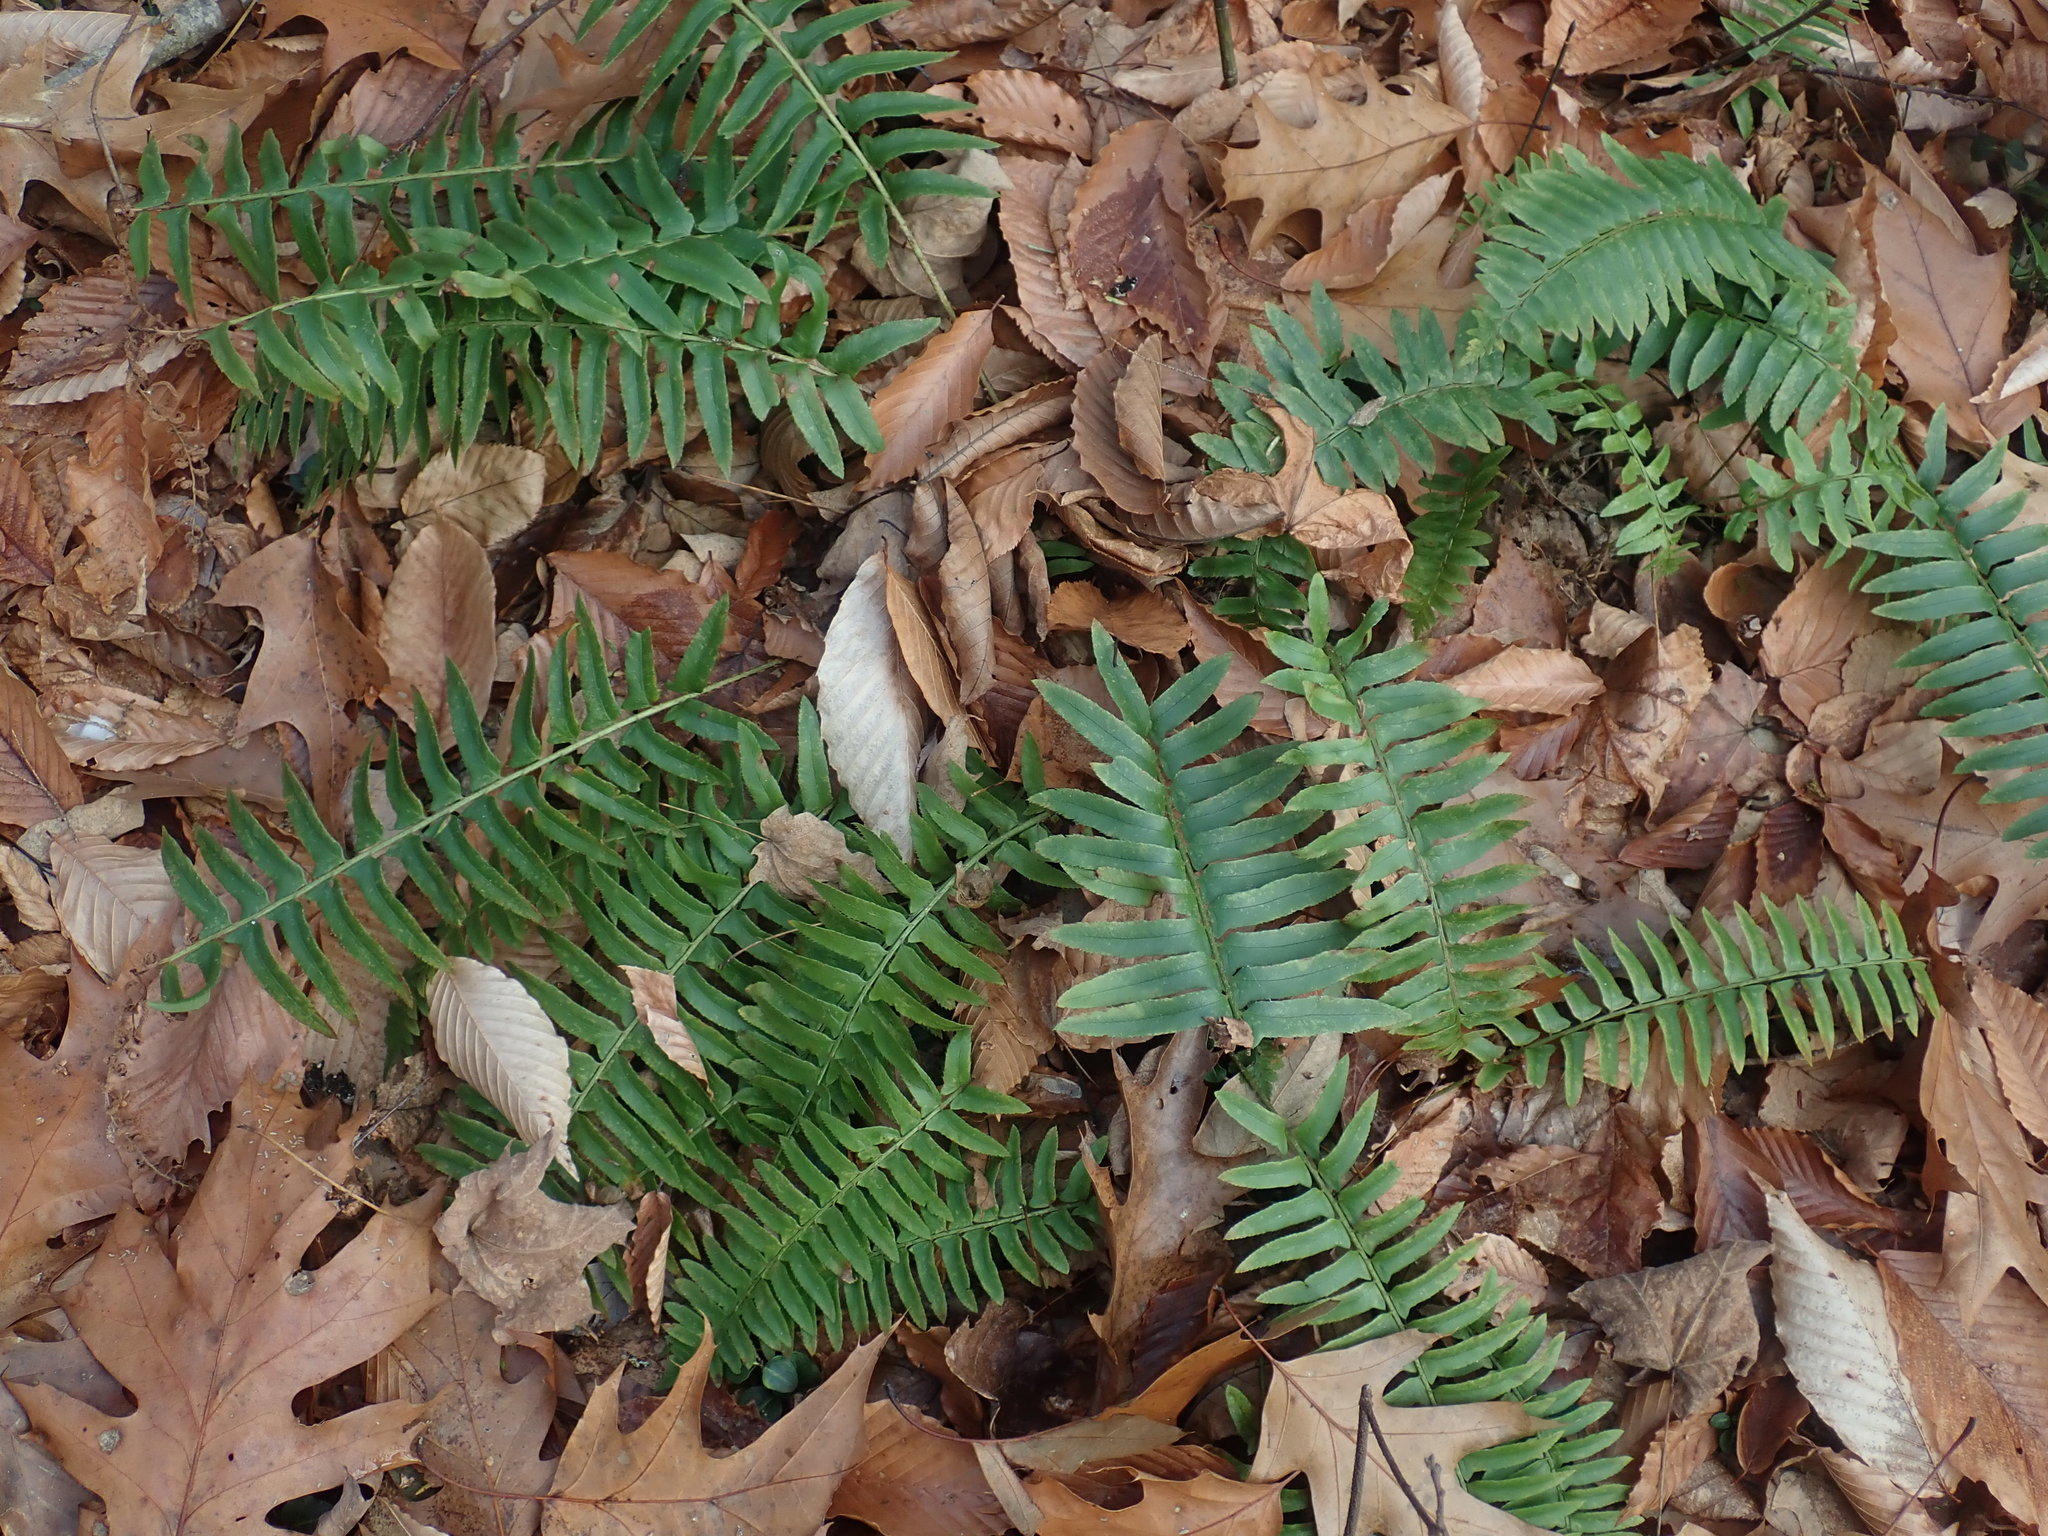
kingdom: Plantae
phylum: Tracheophyta
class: Polypodiopsida
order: Polypodiales
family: Dryopteridaceae
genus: Polystichum
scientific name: Polystichum acrostichoides
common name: Christmas fern
